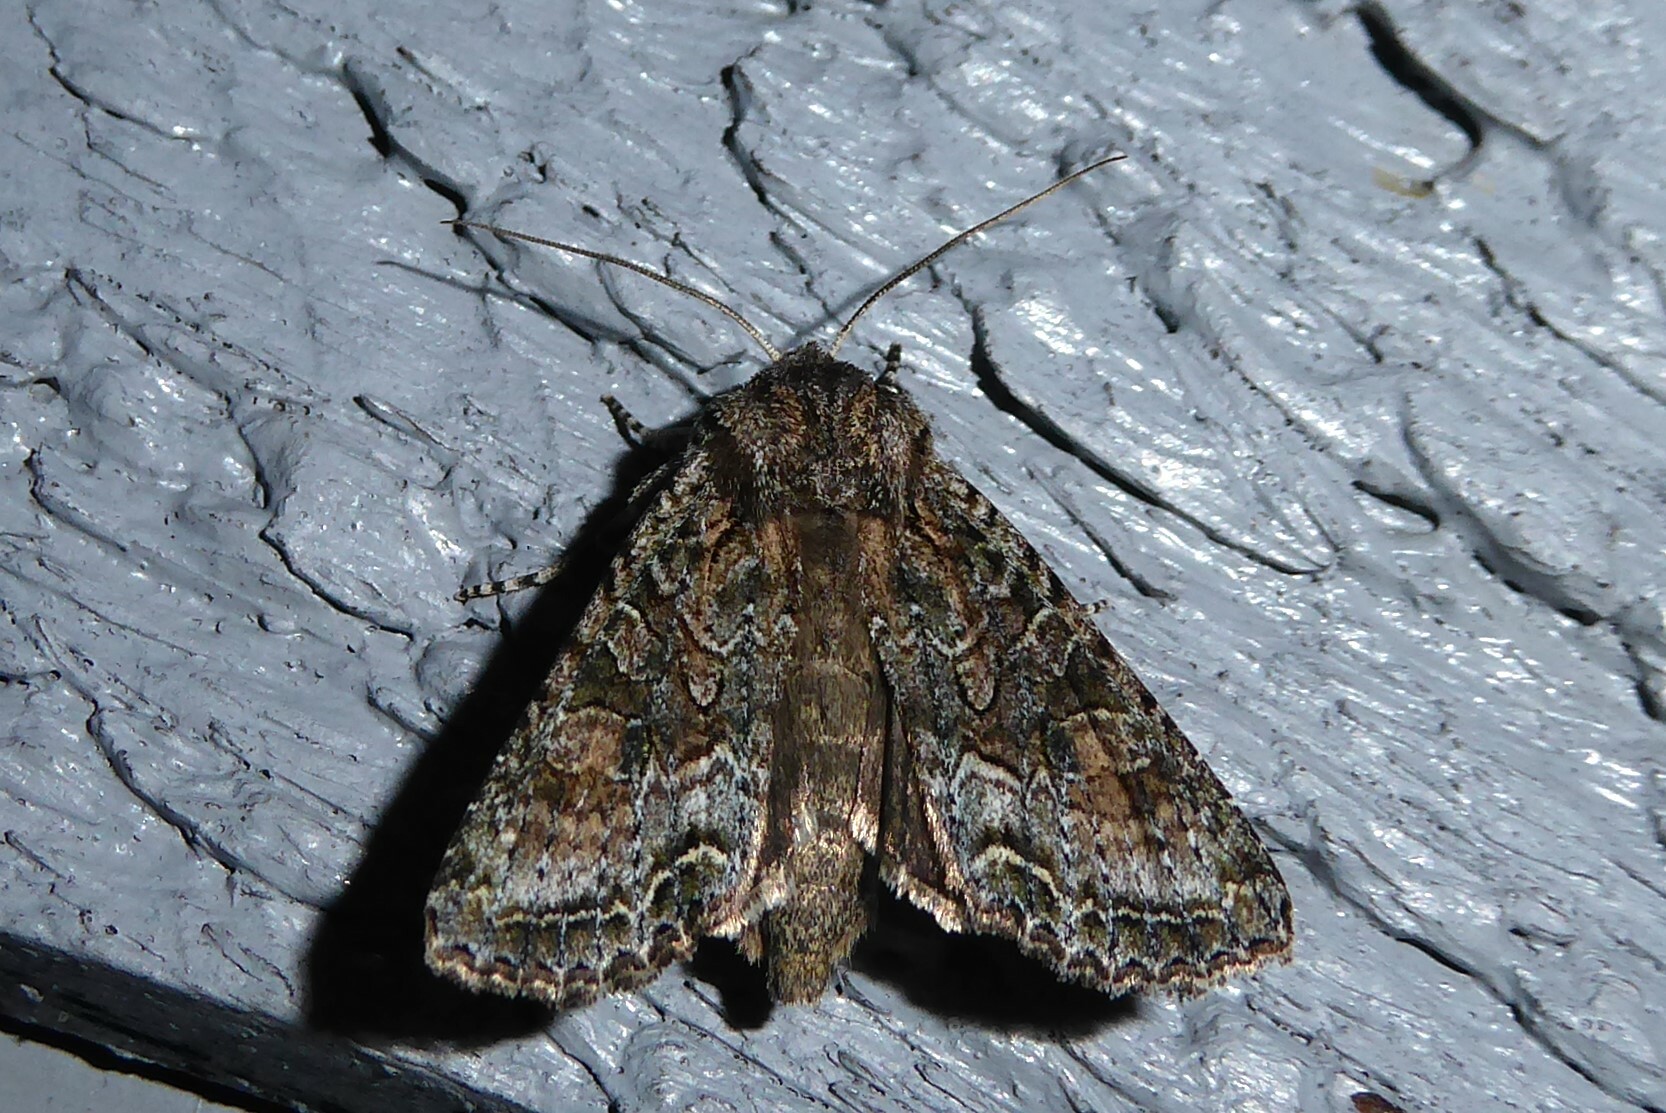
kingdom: Animalia
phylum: Arthropoda
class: Insecta
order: Lepidoptera
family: Noctuidae
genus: Ichneutica
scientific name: Ichneutica mutans
